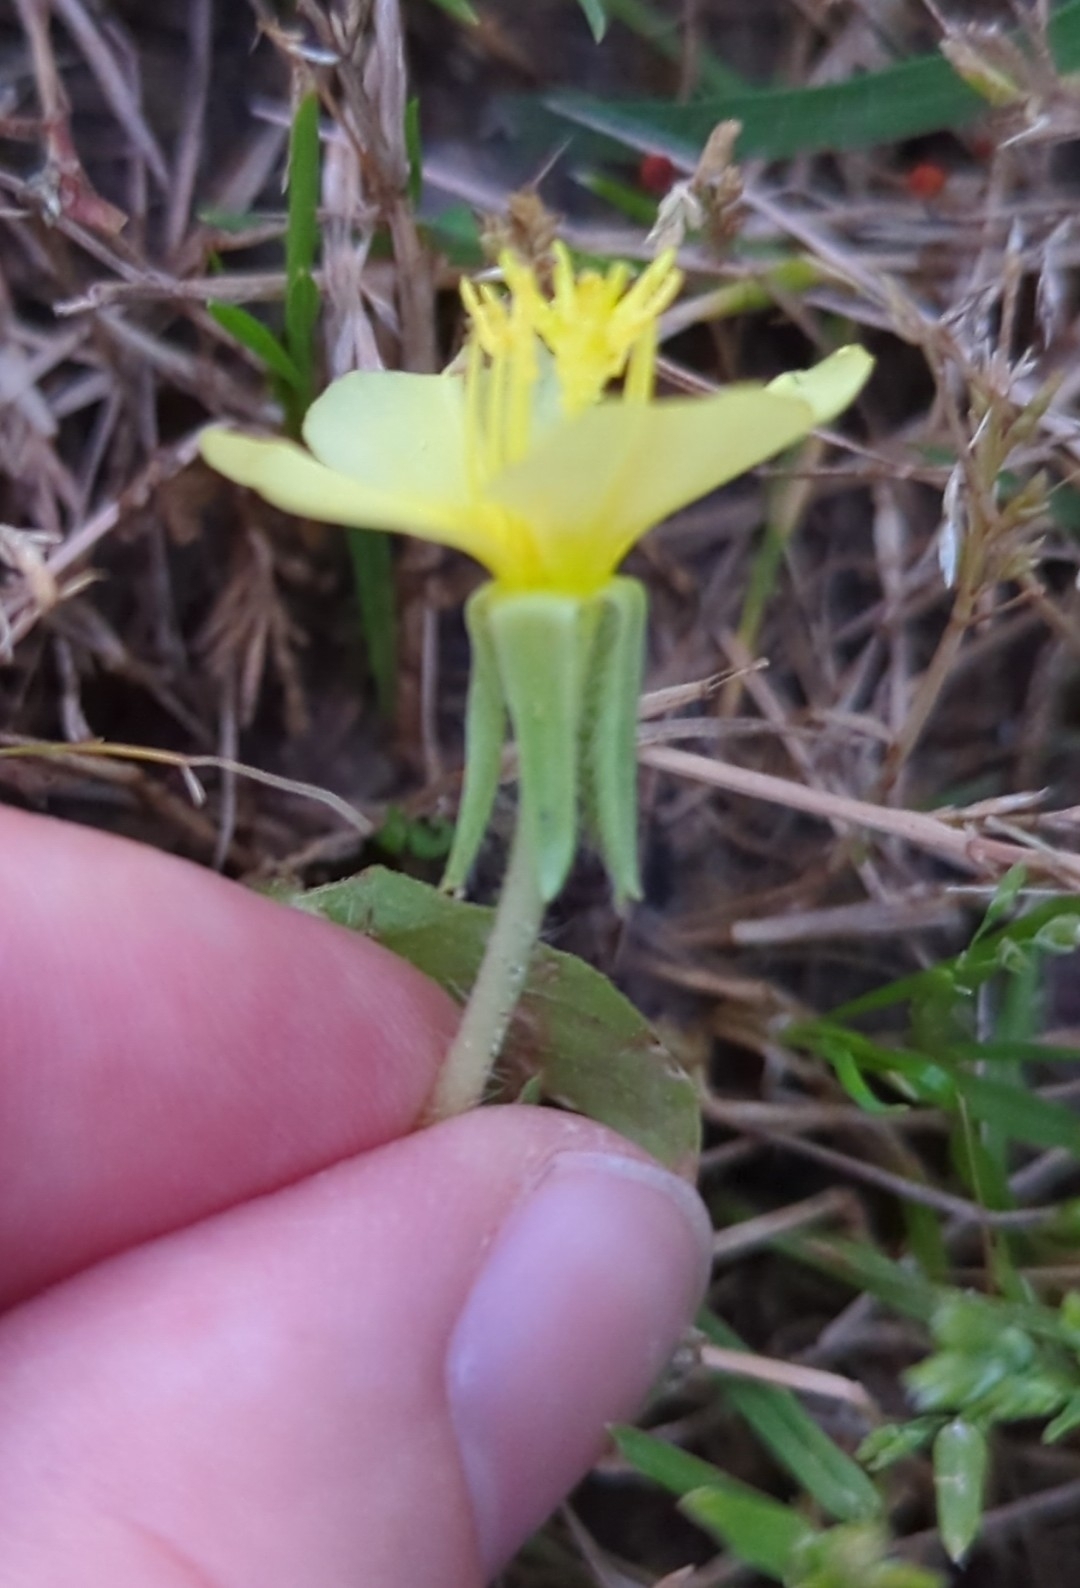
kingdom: Plantae
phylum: Tracheophyta
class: Magnoliopsida
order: Myrtales
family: Onagraceae
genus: Oenothera
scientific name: Oenothera laciniata
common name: Cut-leaved evening-primrose
